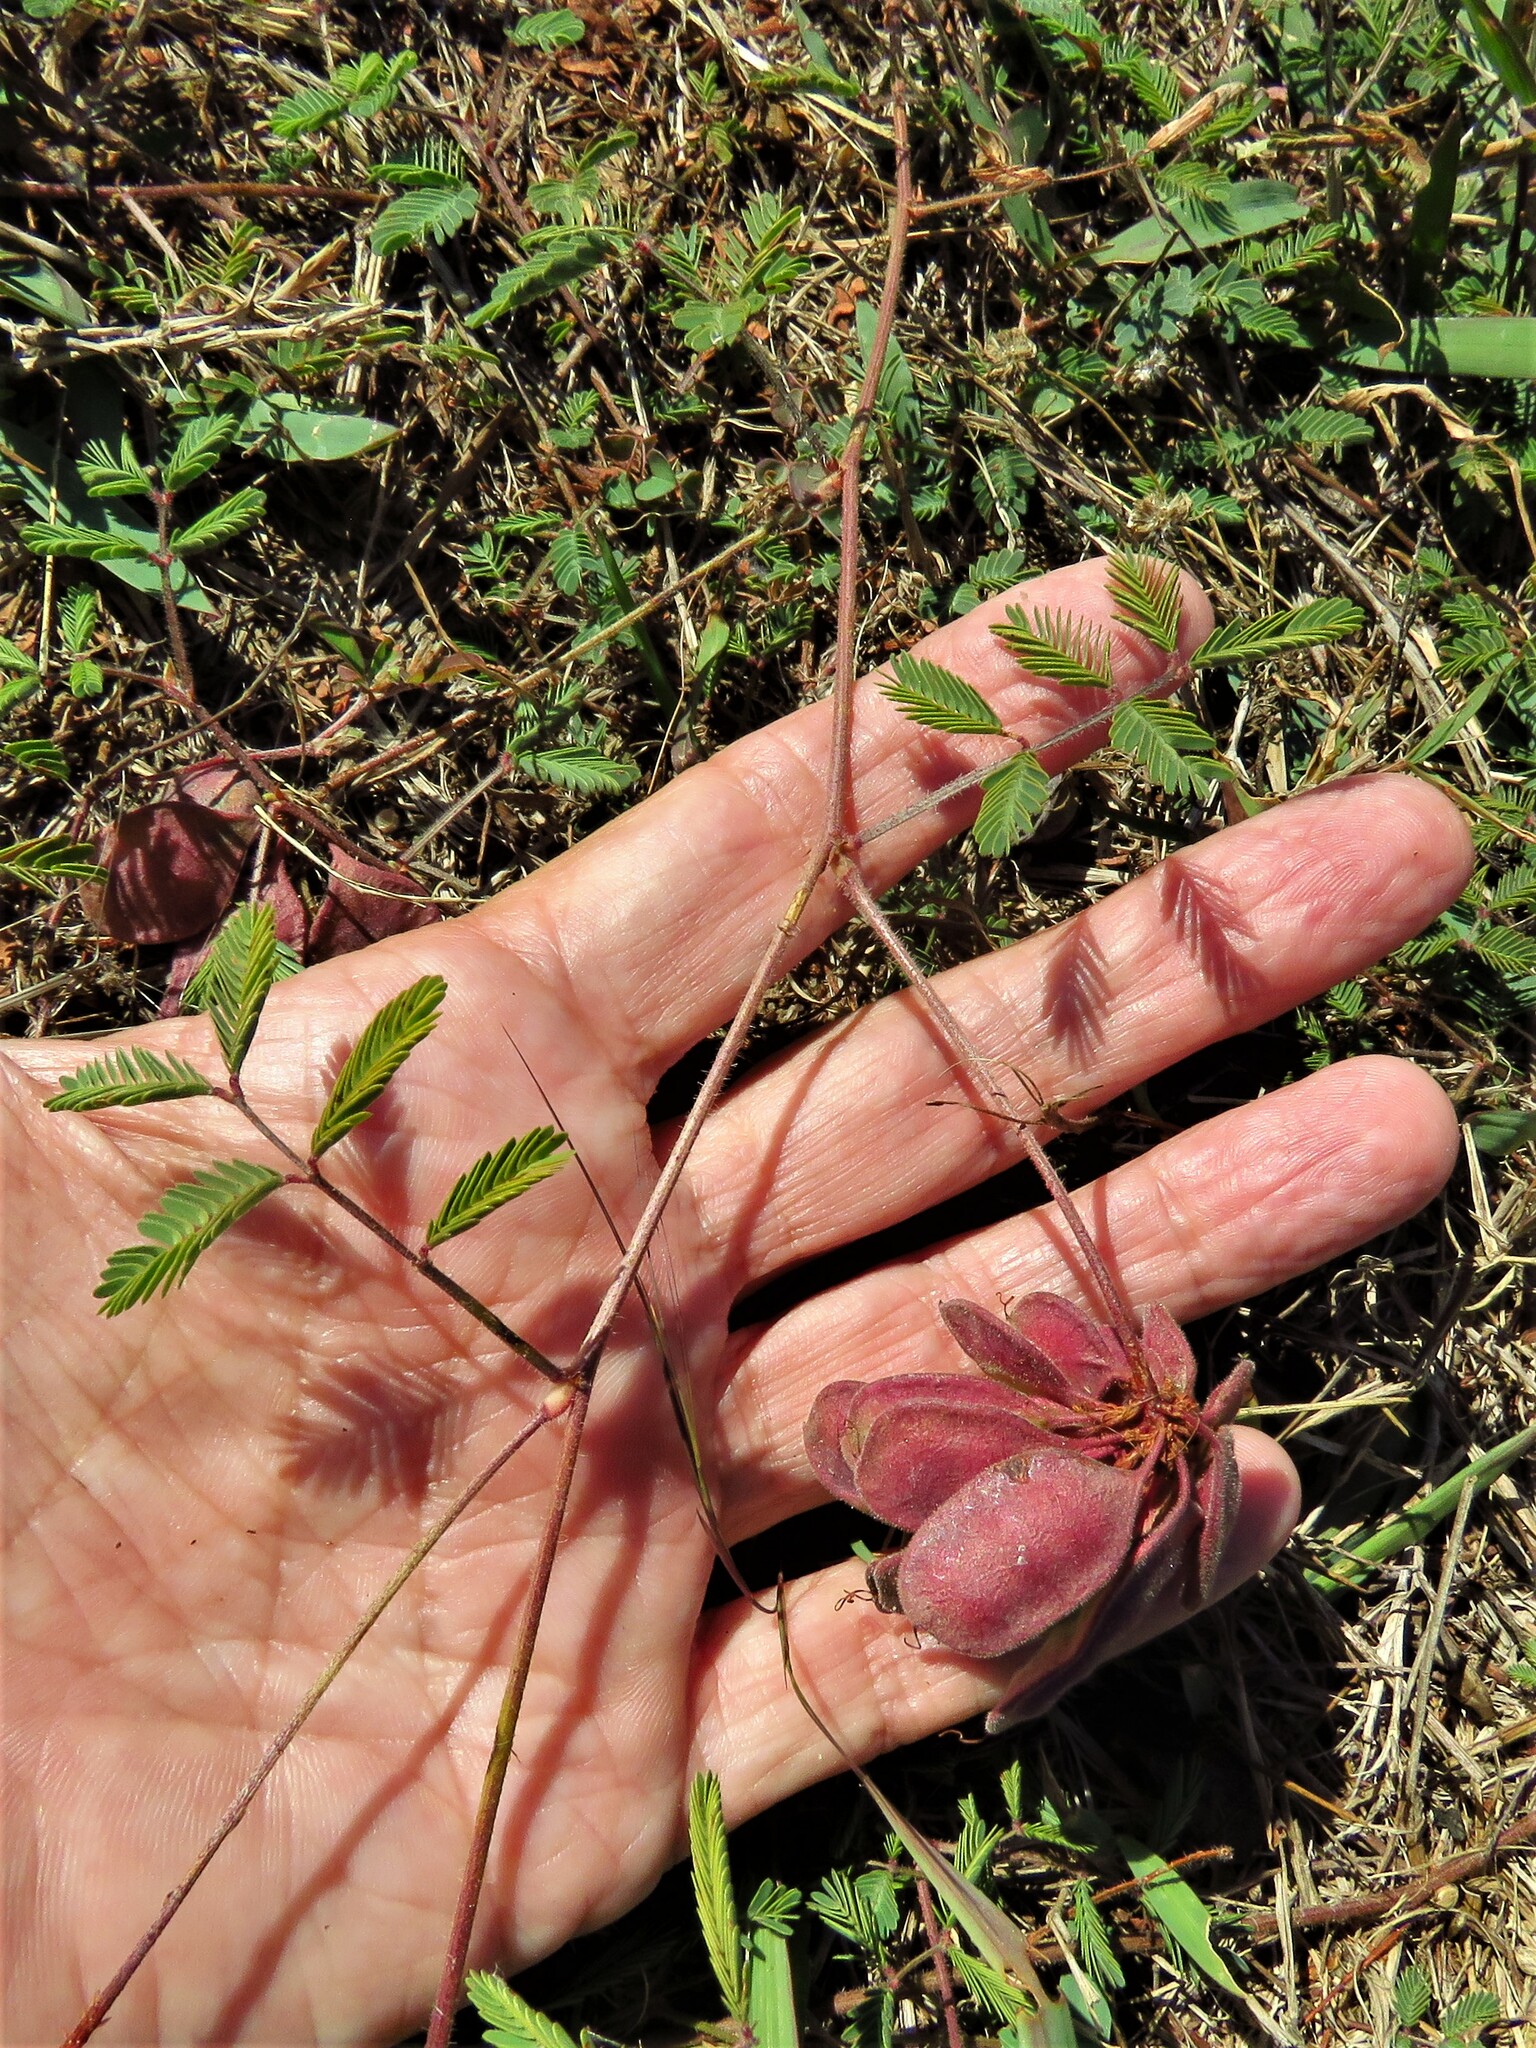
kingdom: Plantae
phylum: Tracheophyta
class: Magnoliopsida
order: Fabales
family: Fabaceae
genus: Neptunia
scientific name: Neptunia lutea
